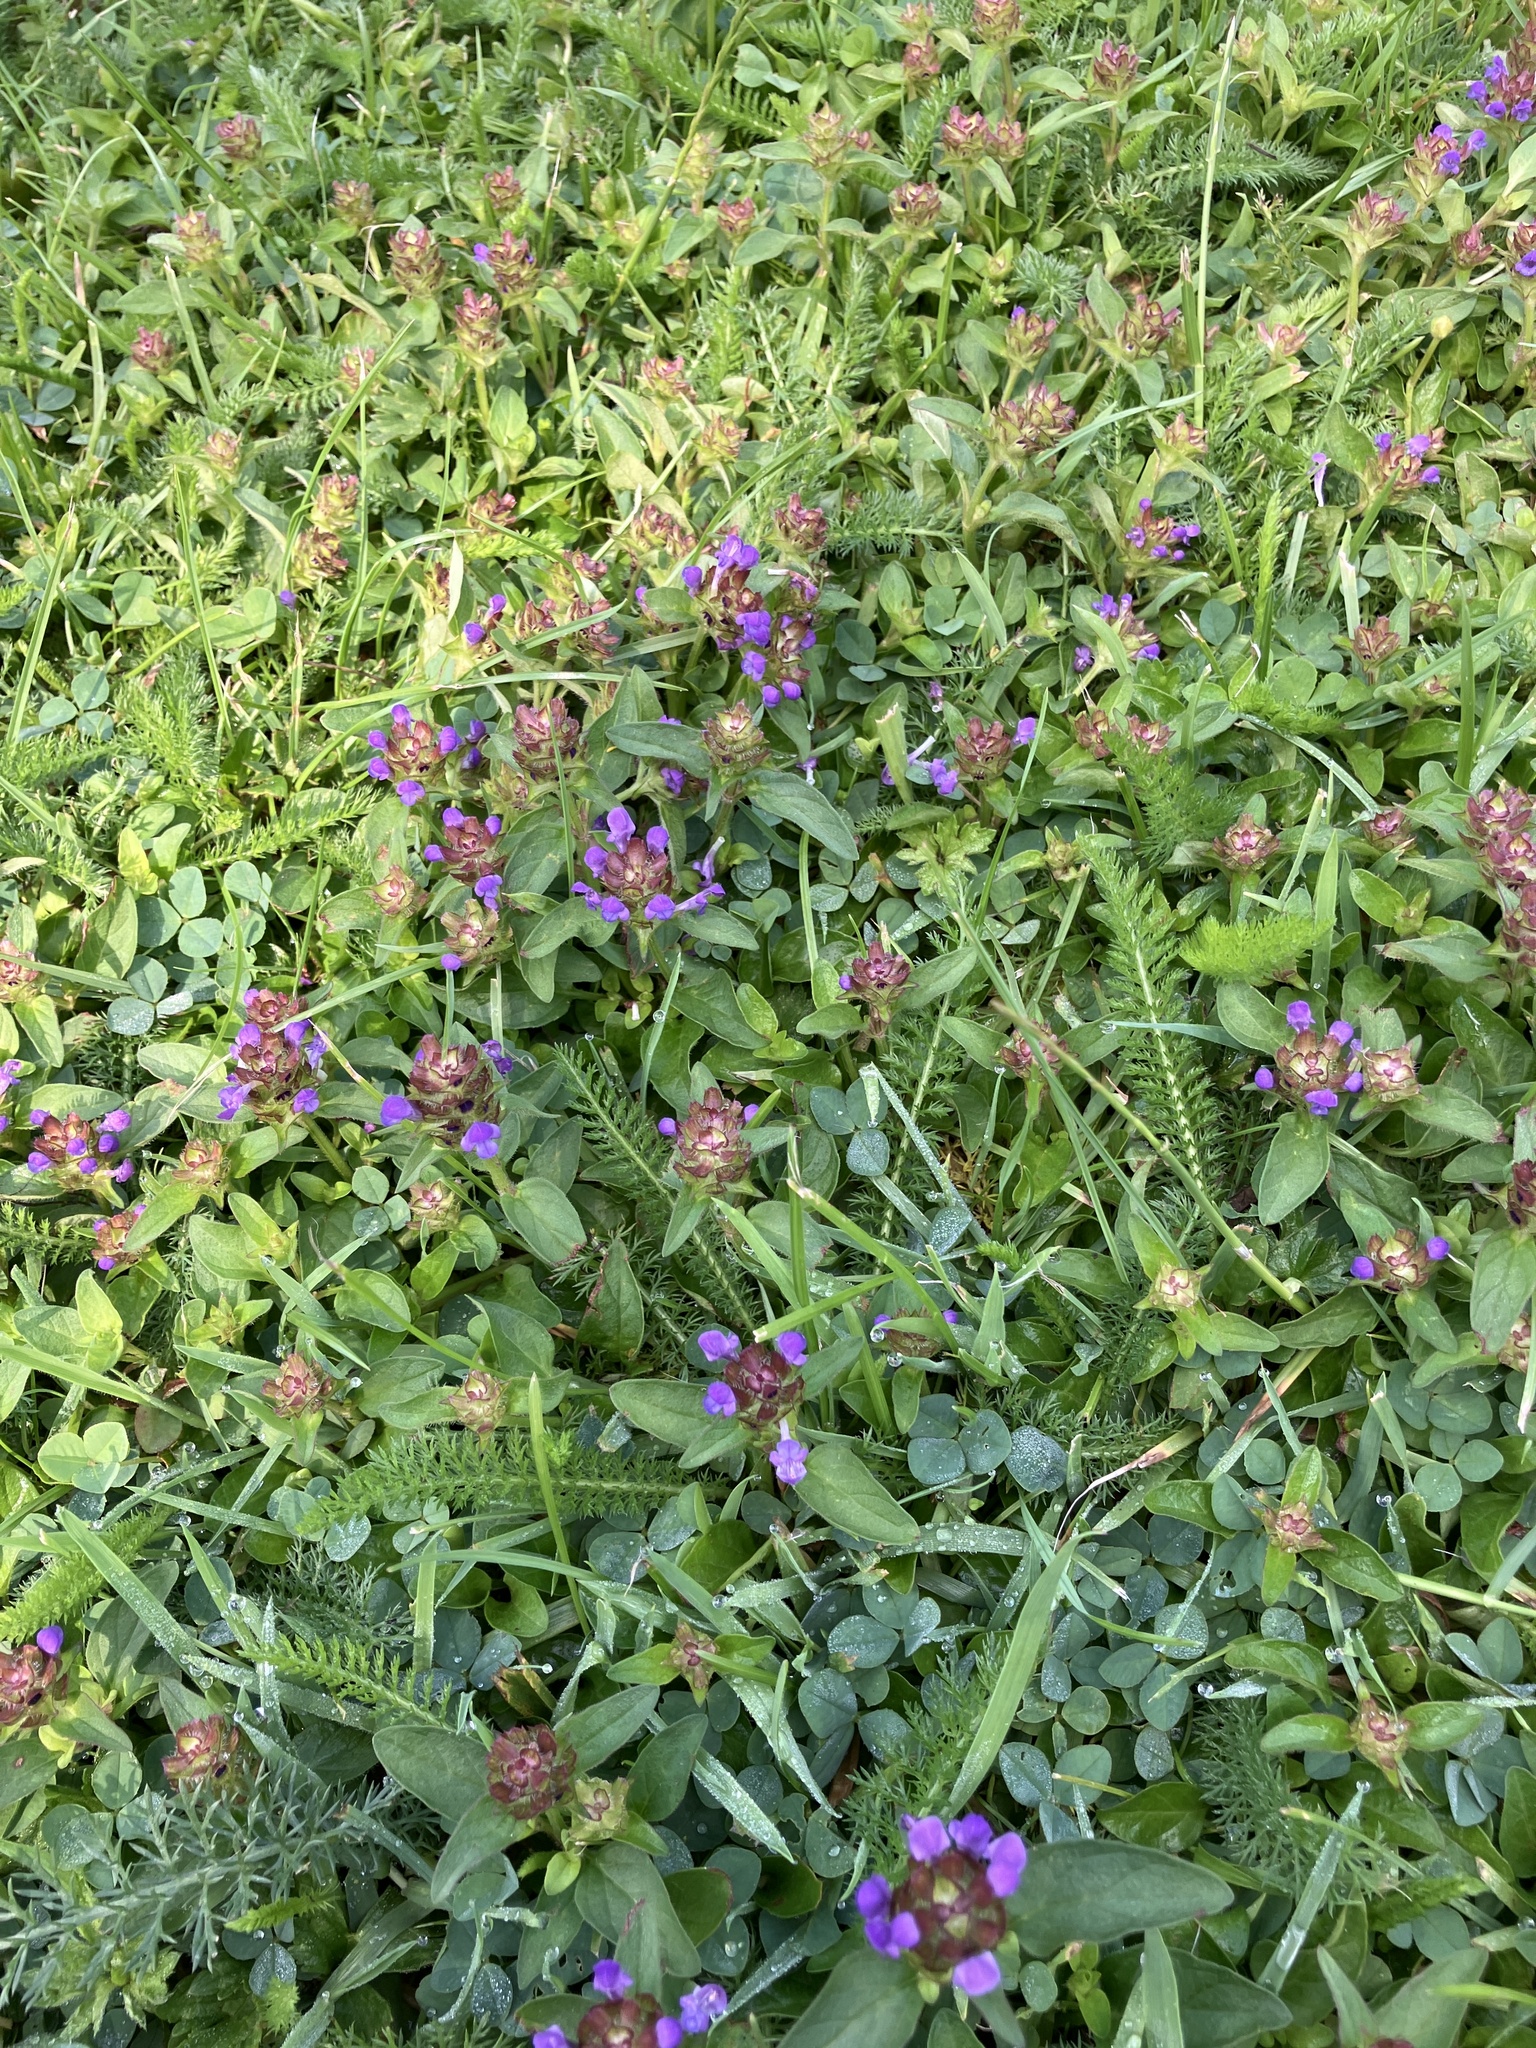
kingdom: Plantae
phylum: Tracheophyta
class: Magnoliopsida
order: Lamiales
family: Lamiaceae
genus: Prunella
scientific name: Prunella vulgaris
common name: Heal-all
